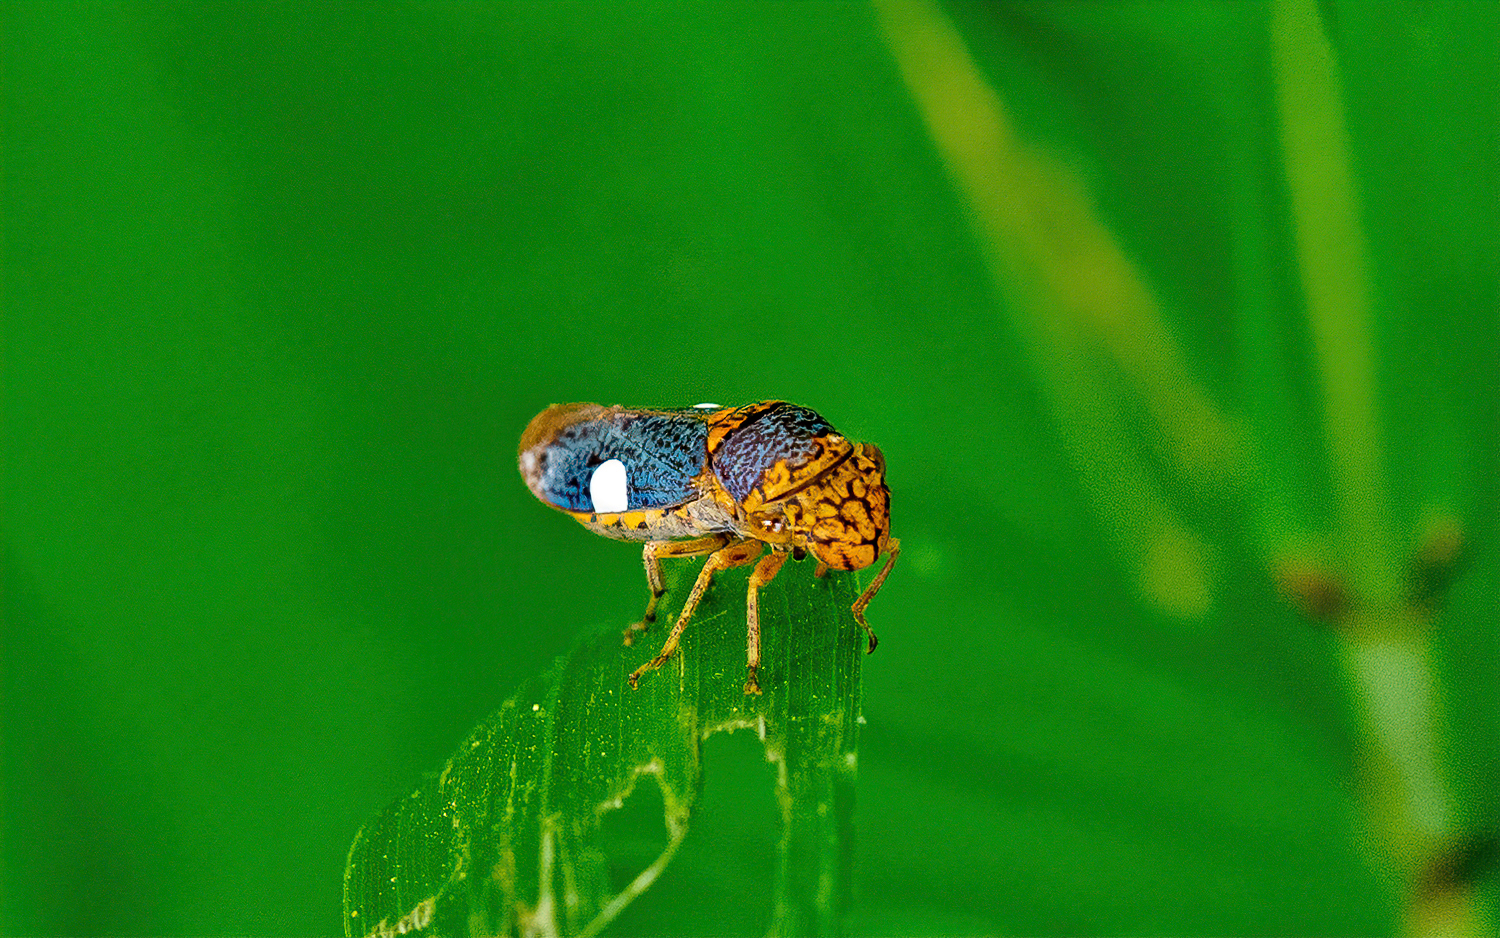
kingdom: Animalia
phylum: Arthropoda
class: Insecta
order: Hemiptera
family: Cicadellidae
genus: Oncometopia
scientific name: Oncometopia orbona
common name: Broad-headed sharpshooter
